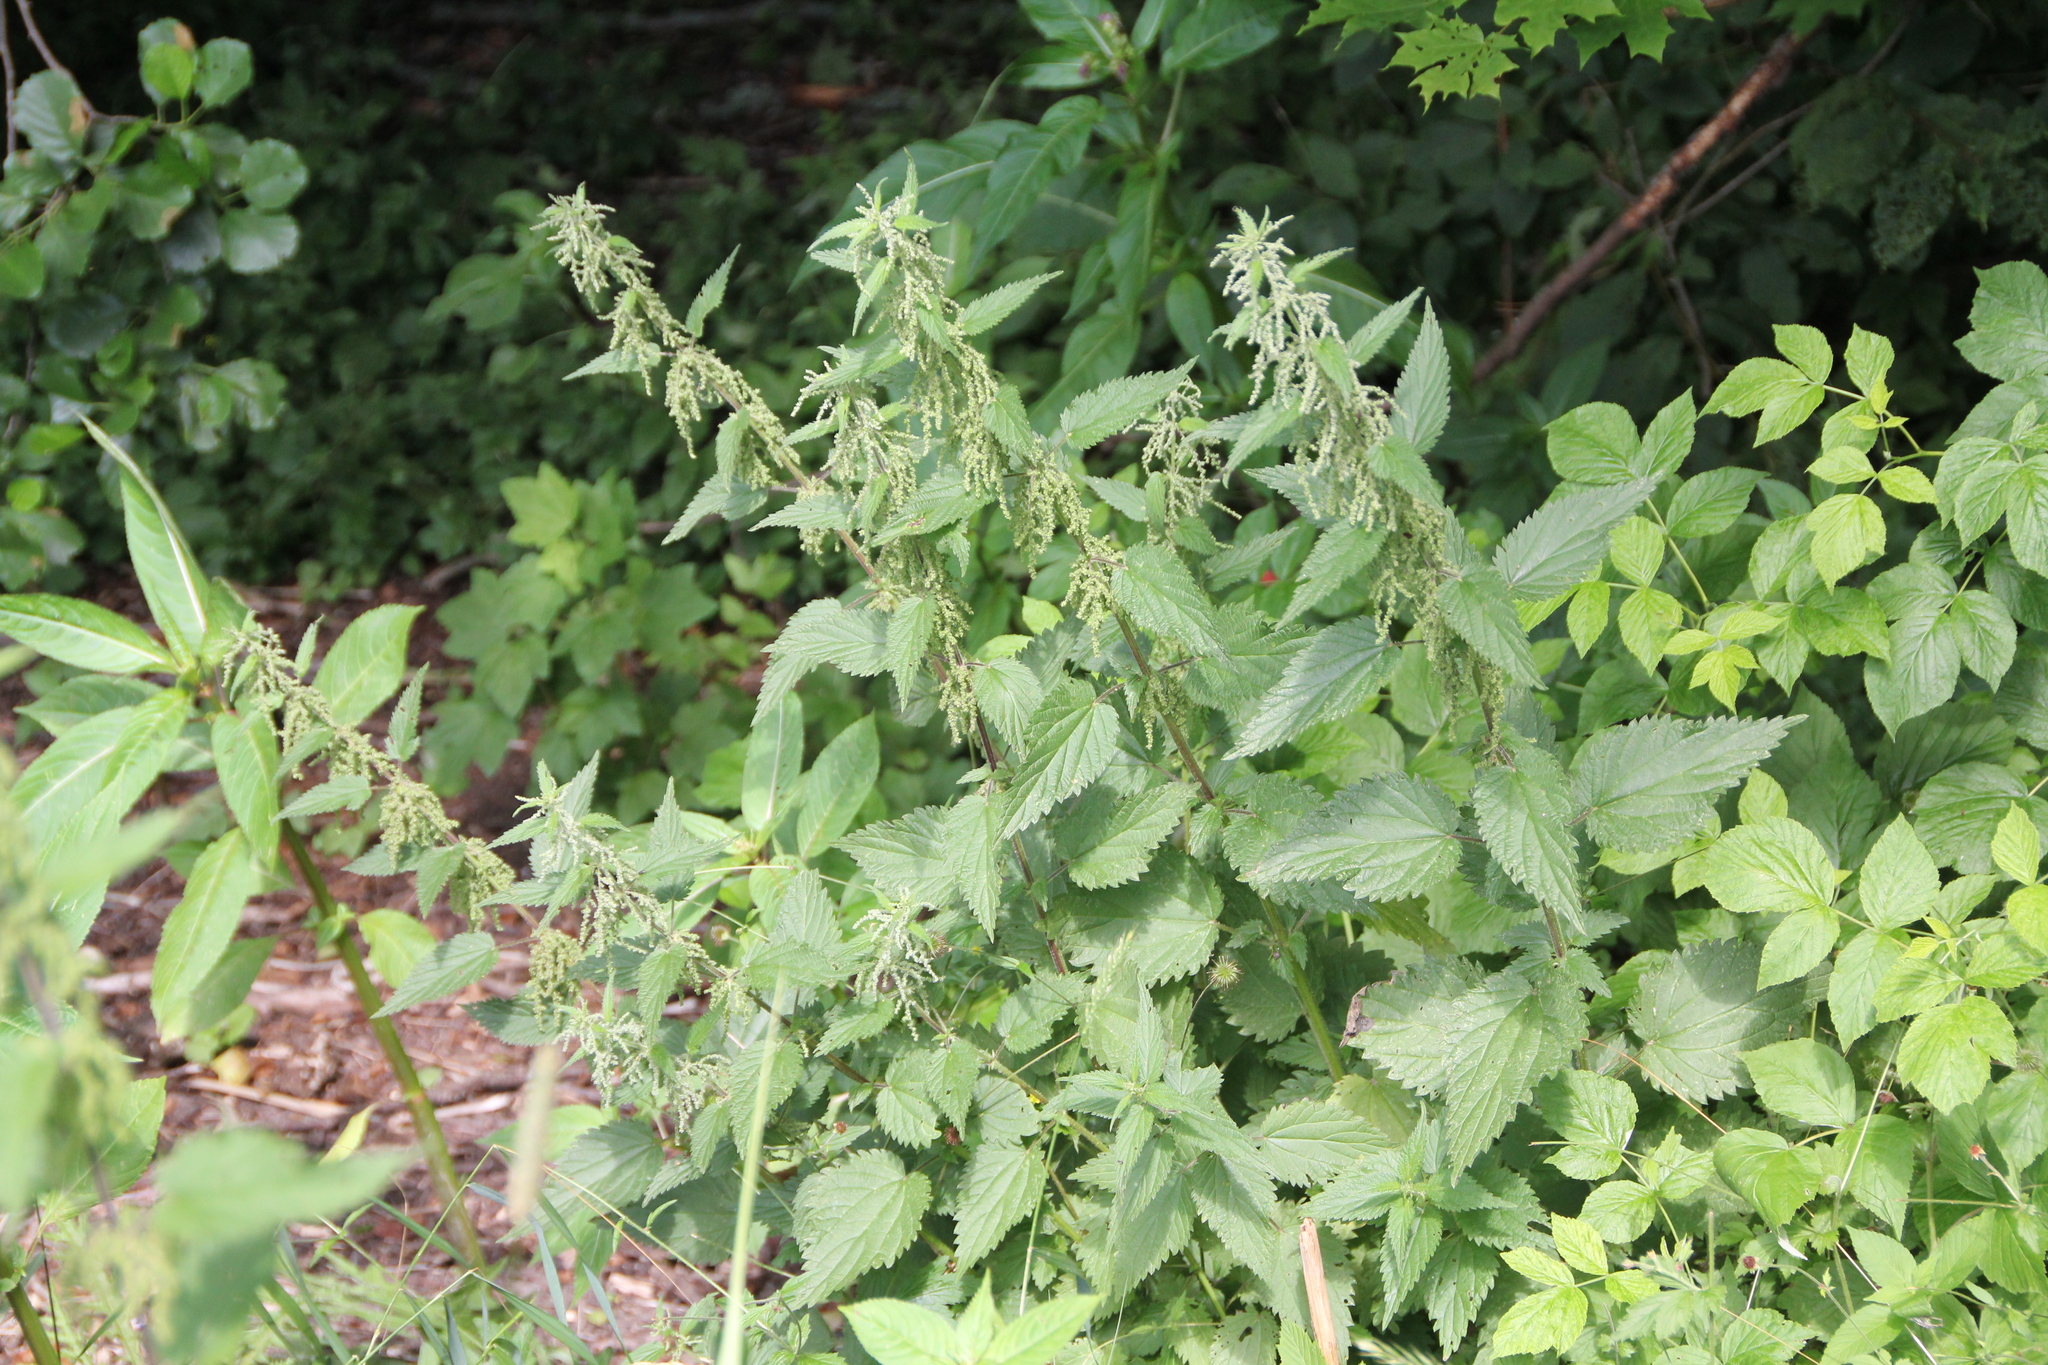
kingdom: Plantae
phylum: Tracheophyta
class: Magnoliopsida
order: Rosales
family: Urticaceae
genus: Urtica
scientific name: Urtica dioica
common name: Common nettle
